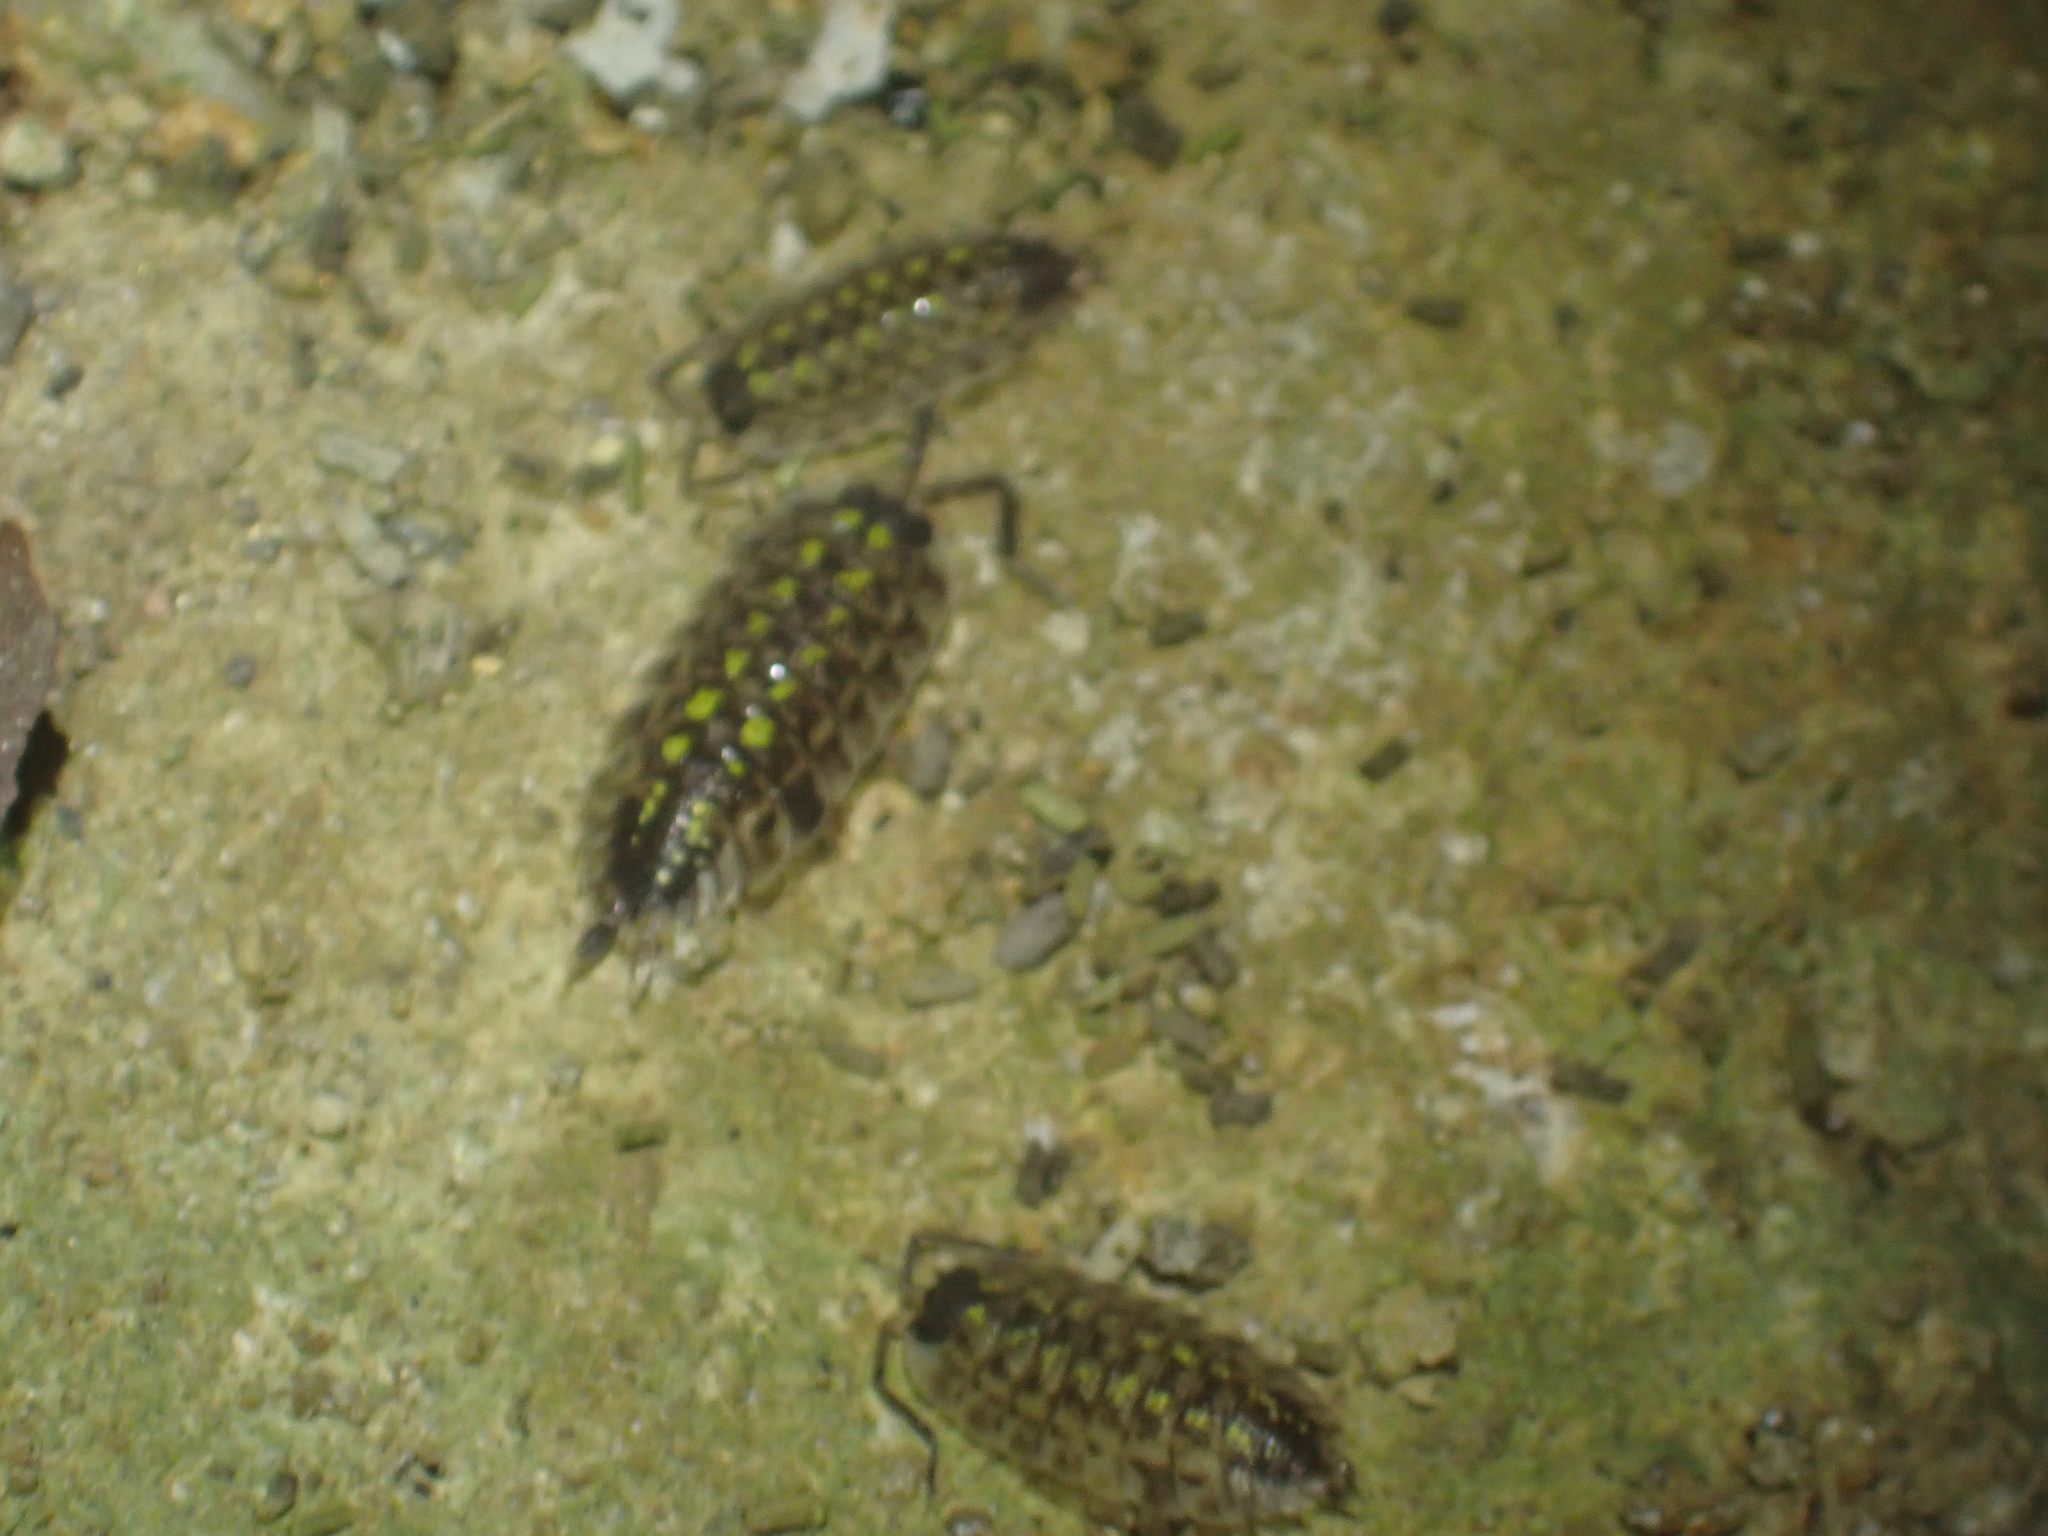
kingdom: Animalia
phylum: Arthropoda
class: Malacostraca
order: Isopoda
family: Porcellionidae
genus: Porcellio
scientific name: Porcellio spinicornis
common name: Painted woodlouse
